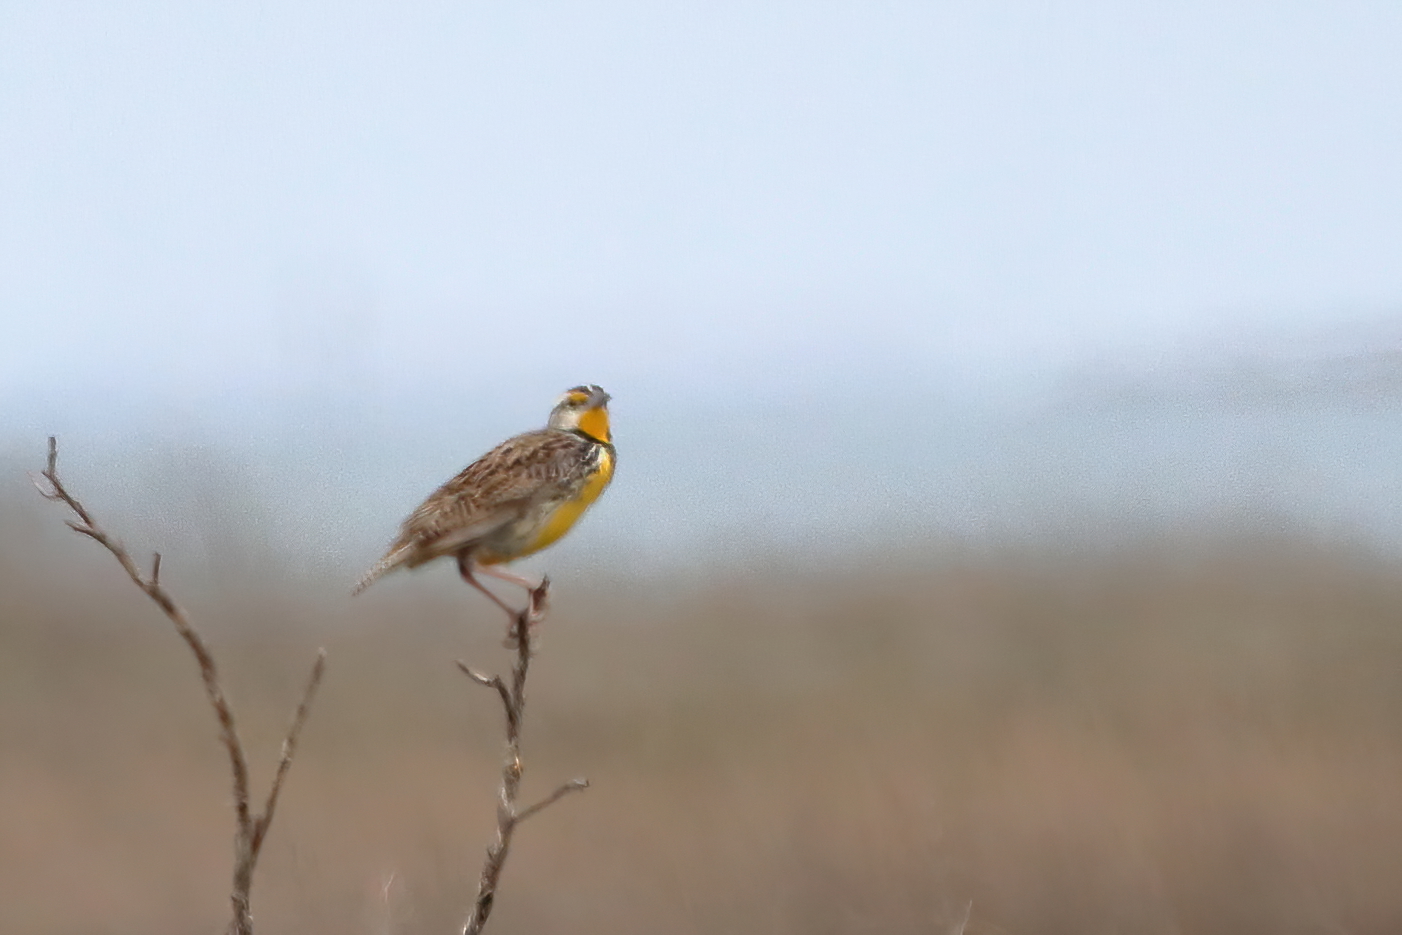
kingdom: Animalia
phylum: Chordata
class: Aves
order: Passeriformes
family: Icteridae
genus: Sturnella
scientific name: Sturnella magna
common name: Eastern meadowlark
